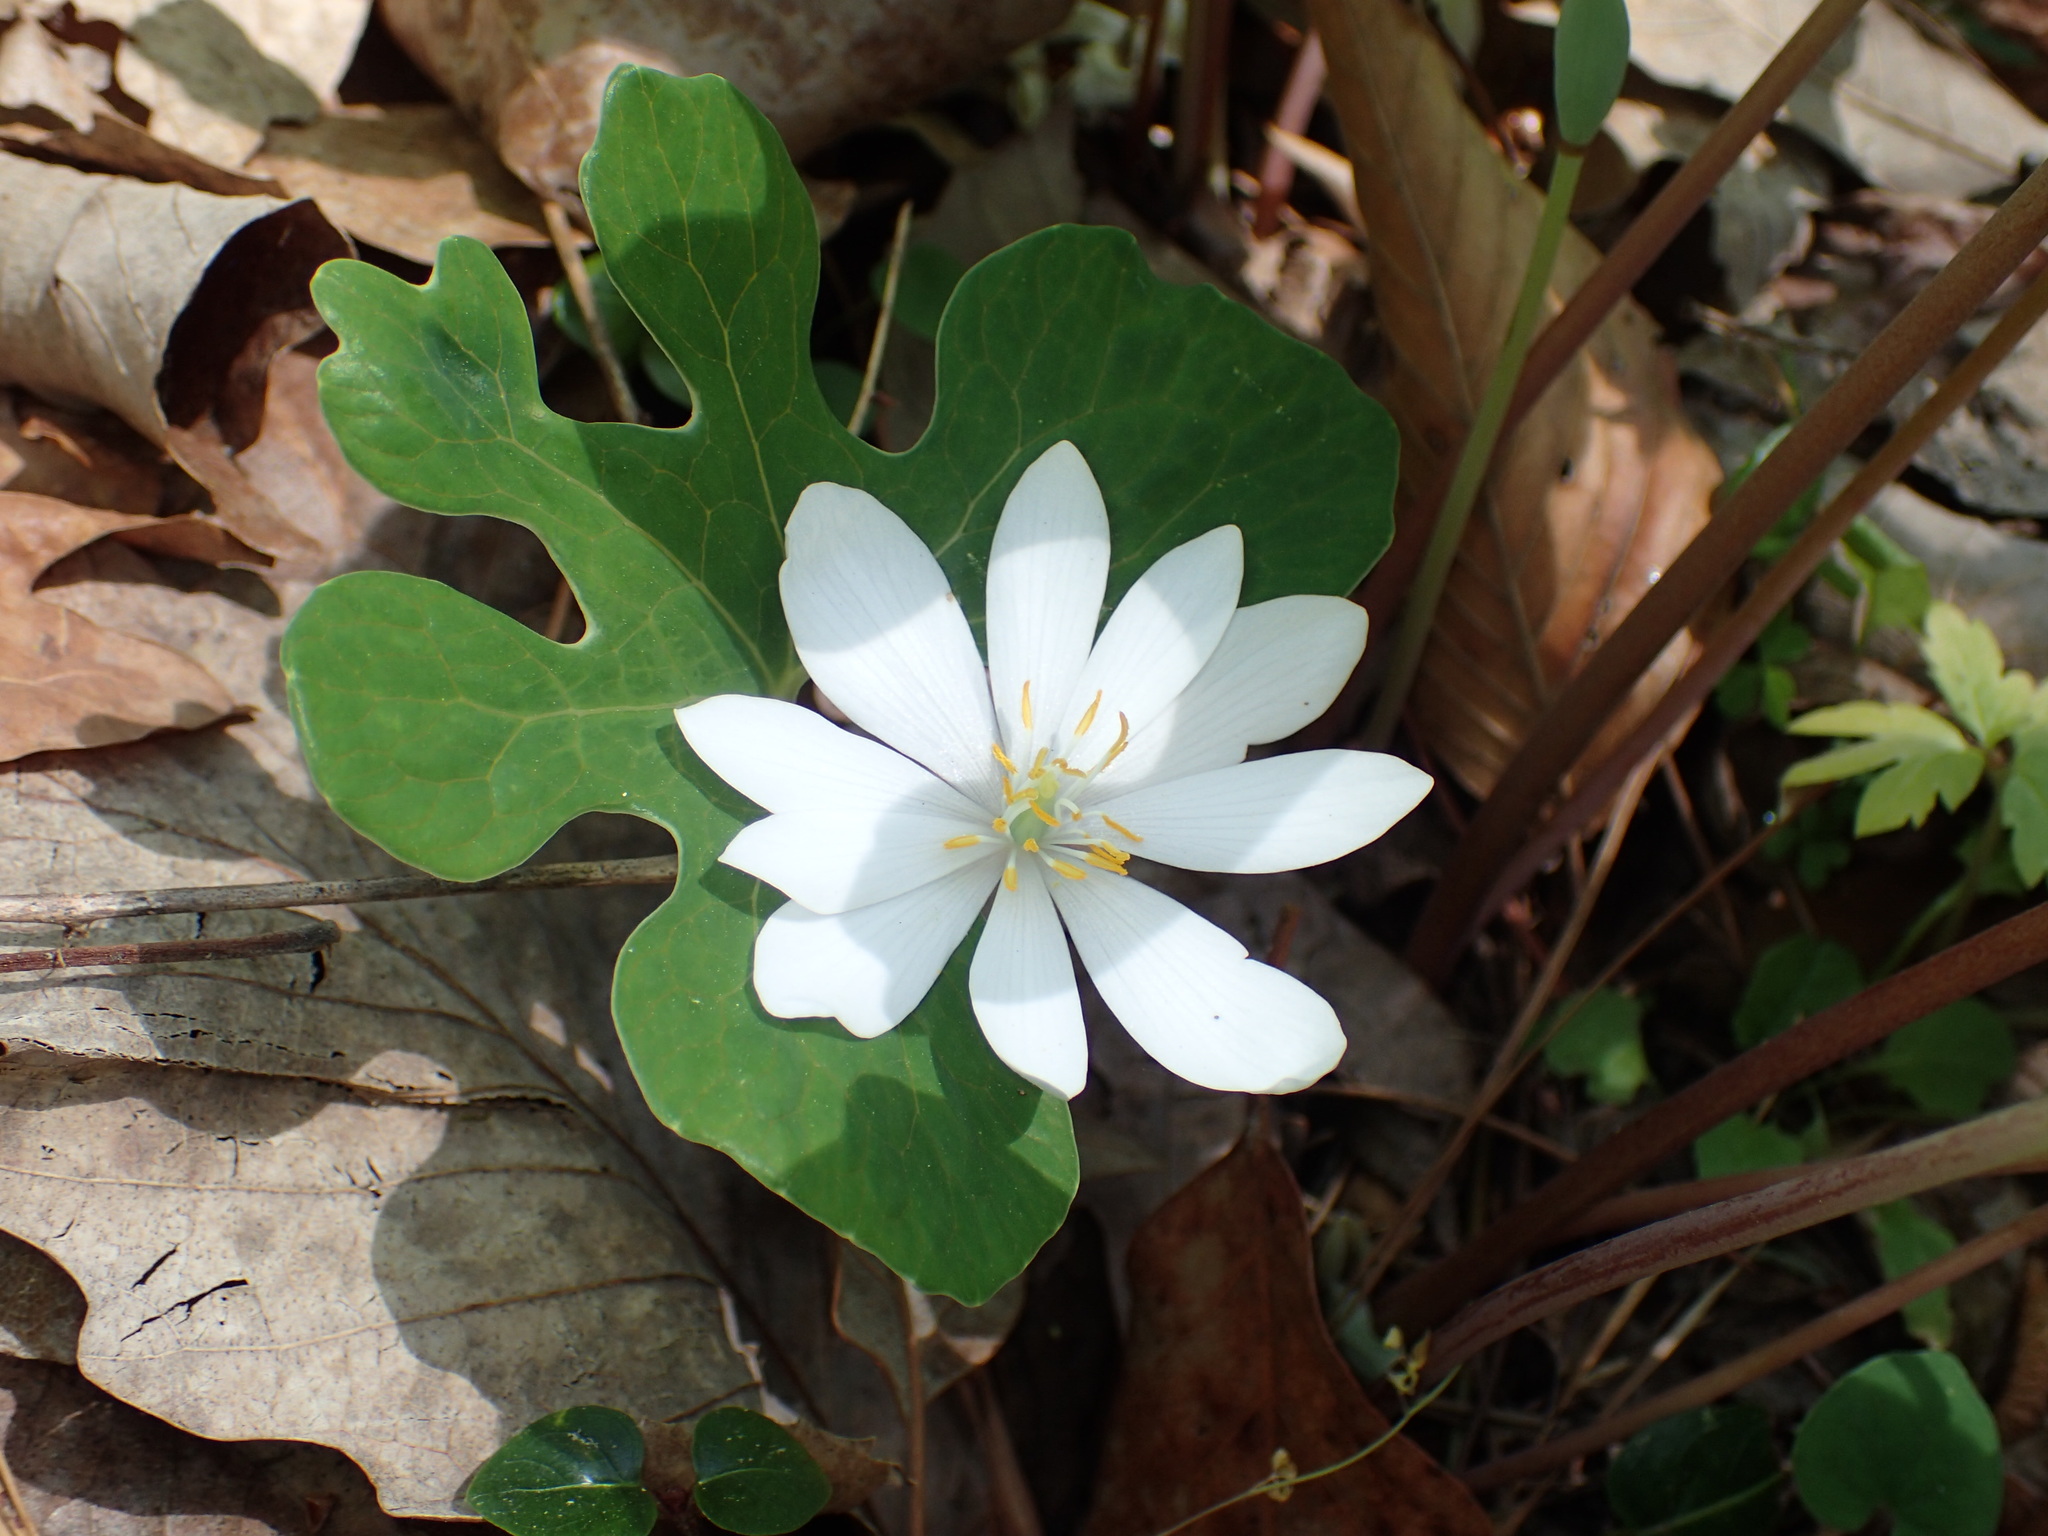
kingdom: Plantae
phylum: Tracheophyta
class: Magnoliopsida
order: Ranunculales
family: Papaveraceae
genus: Sanguinaria
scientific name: Sanguinaria canadensis
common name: Bloodroot
